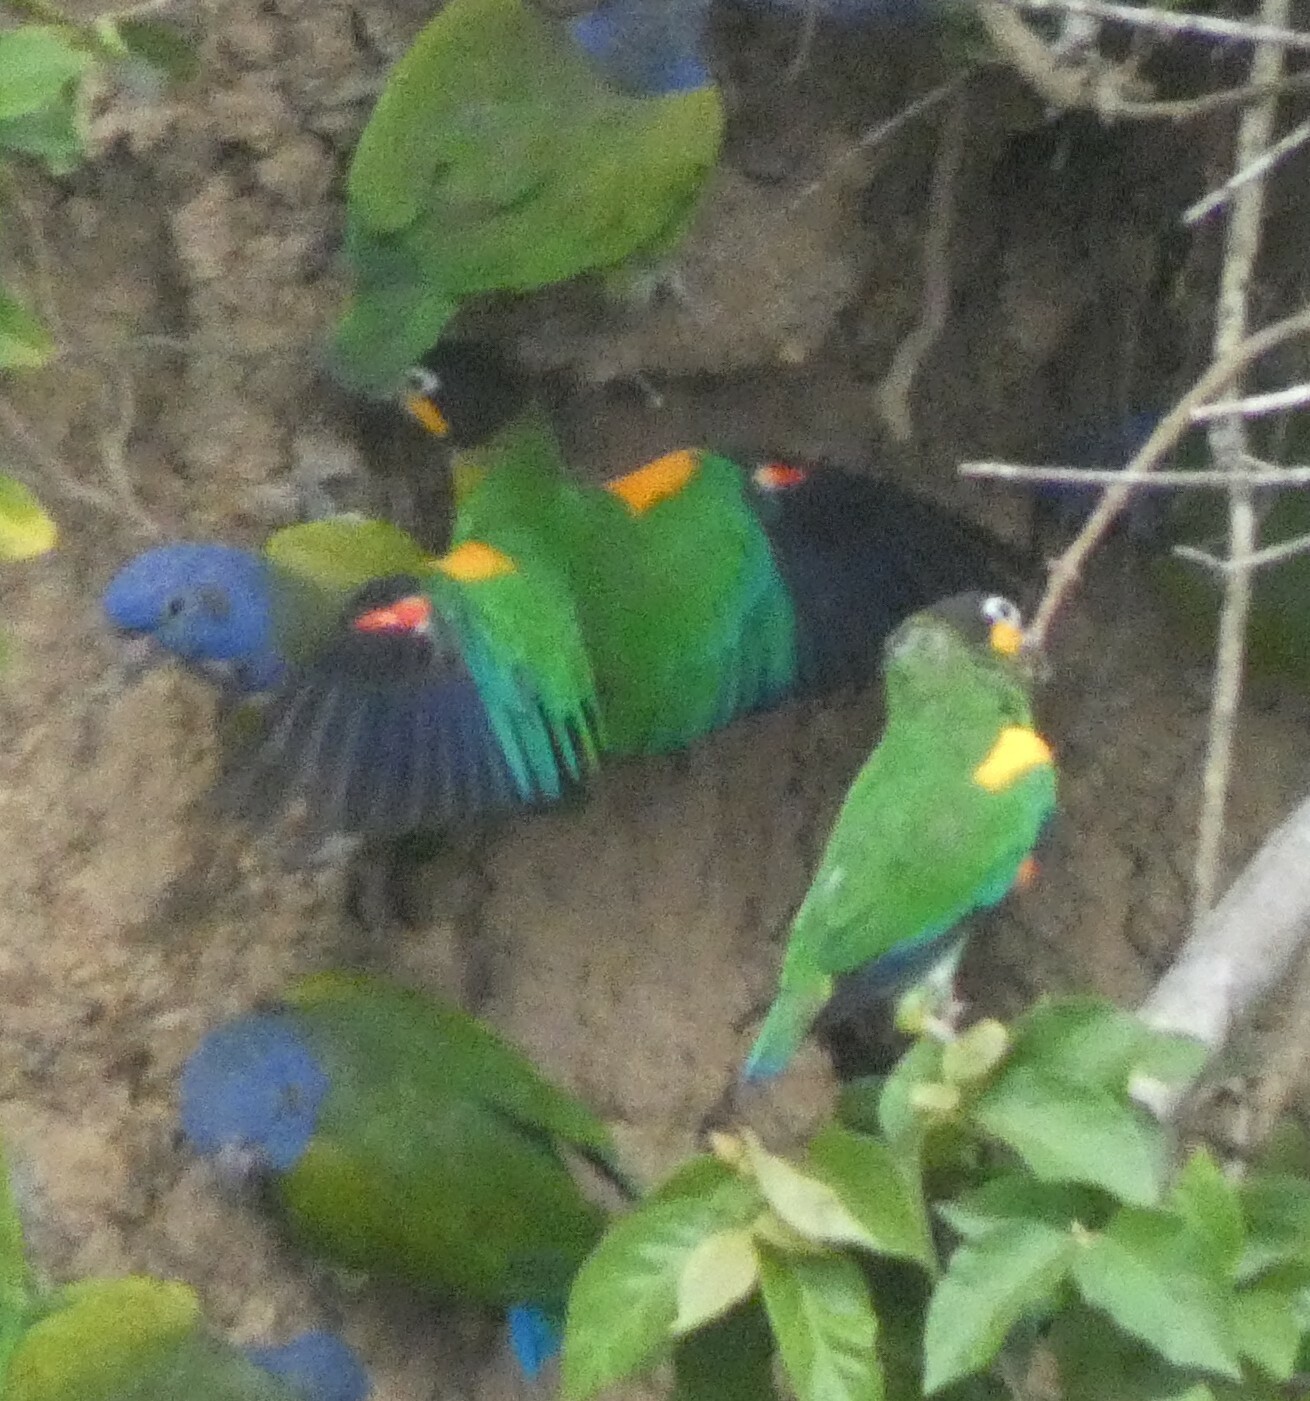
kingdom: Animalia
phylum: Chordata
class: Aves
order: Psittaciformes
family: Psittacidae
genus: Pionopsitta
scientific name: Pionopsitta barrabandi
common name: Orange-cheeked parrot
